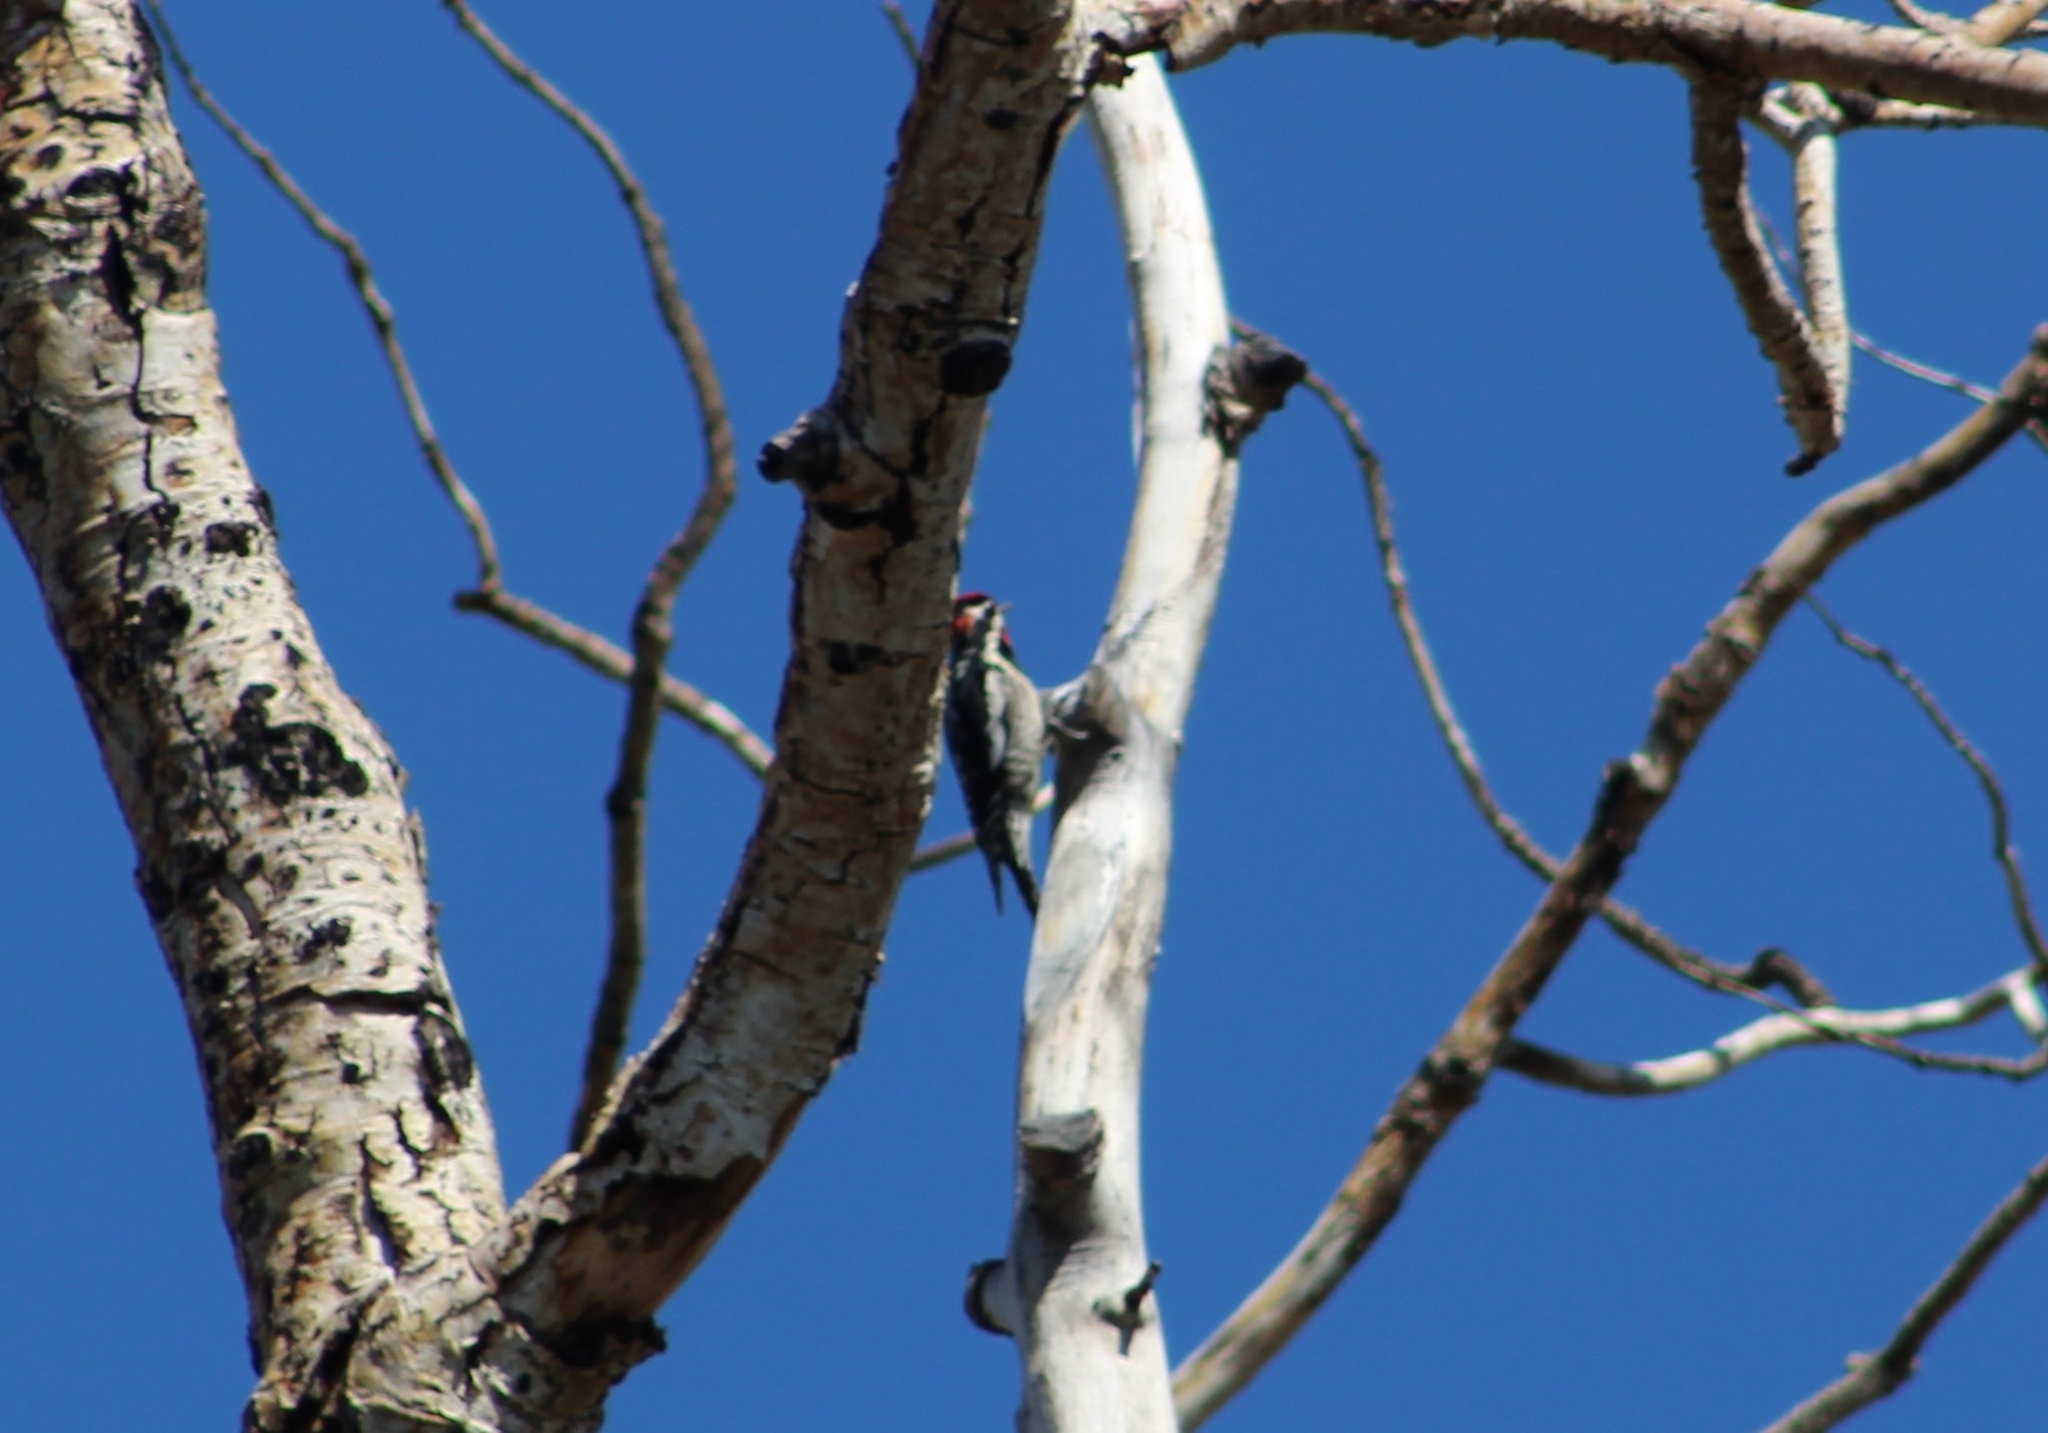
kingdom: Animalia
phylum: Chordata
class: Aves
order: Piciformes
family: Picidae
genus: Sphyrapicus
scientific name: Sphyrapicus nuchalis
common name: Red-naped sapsucker
